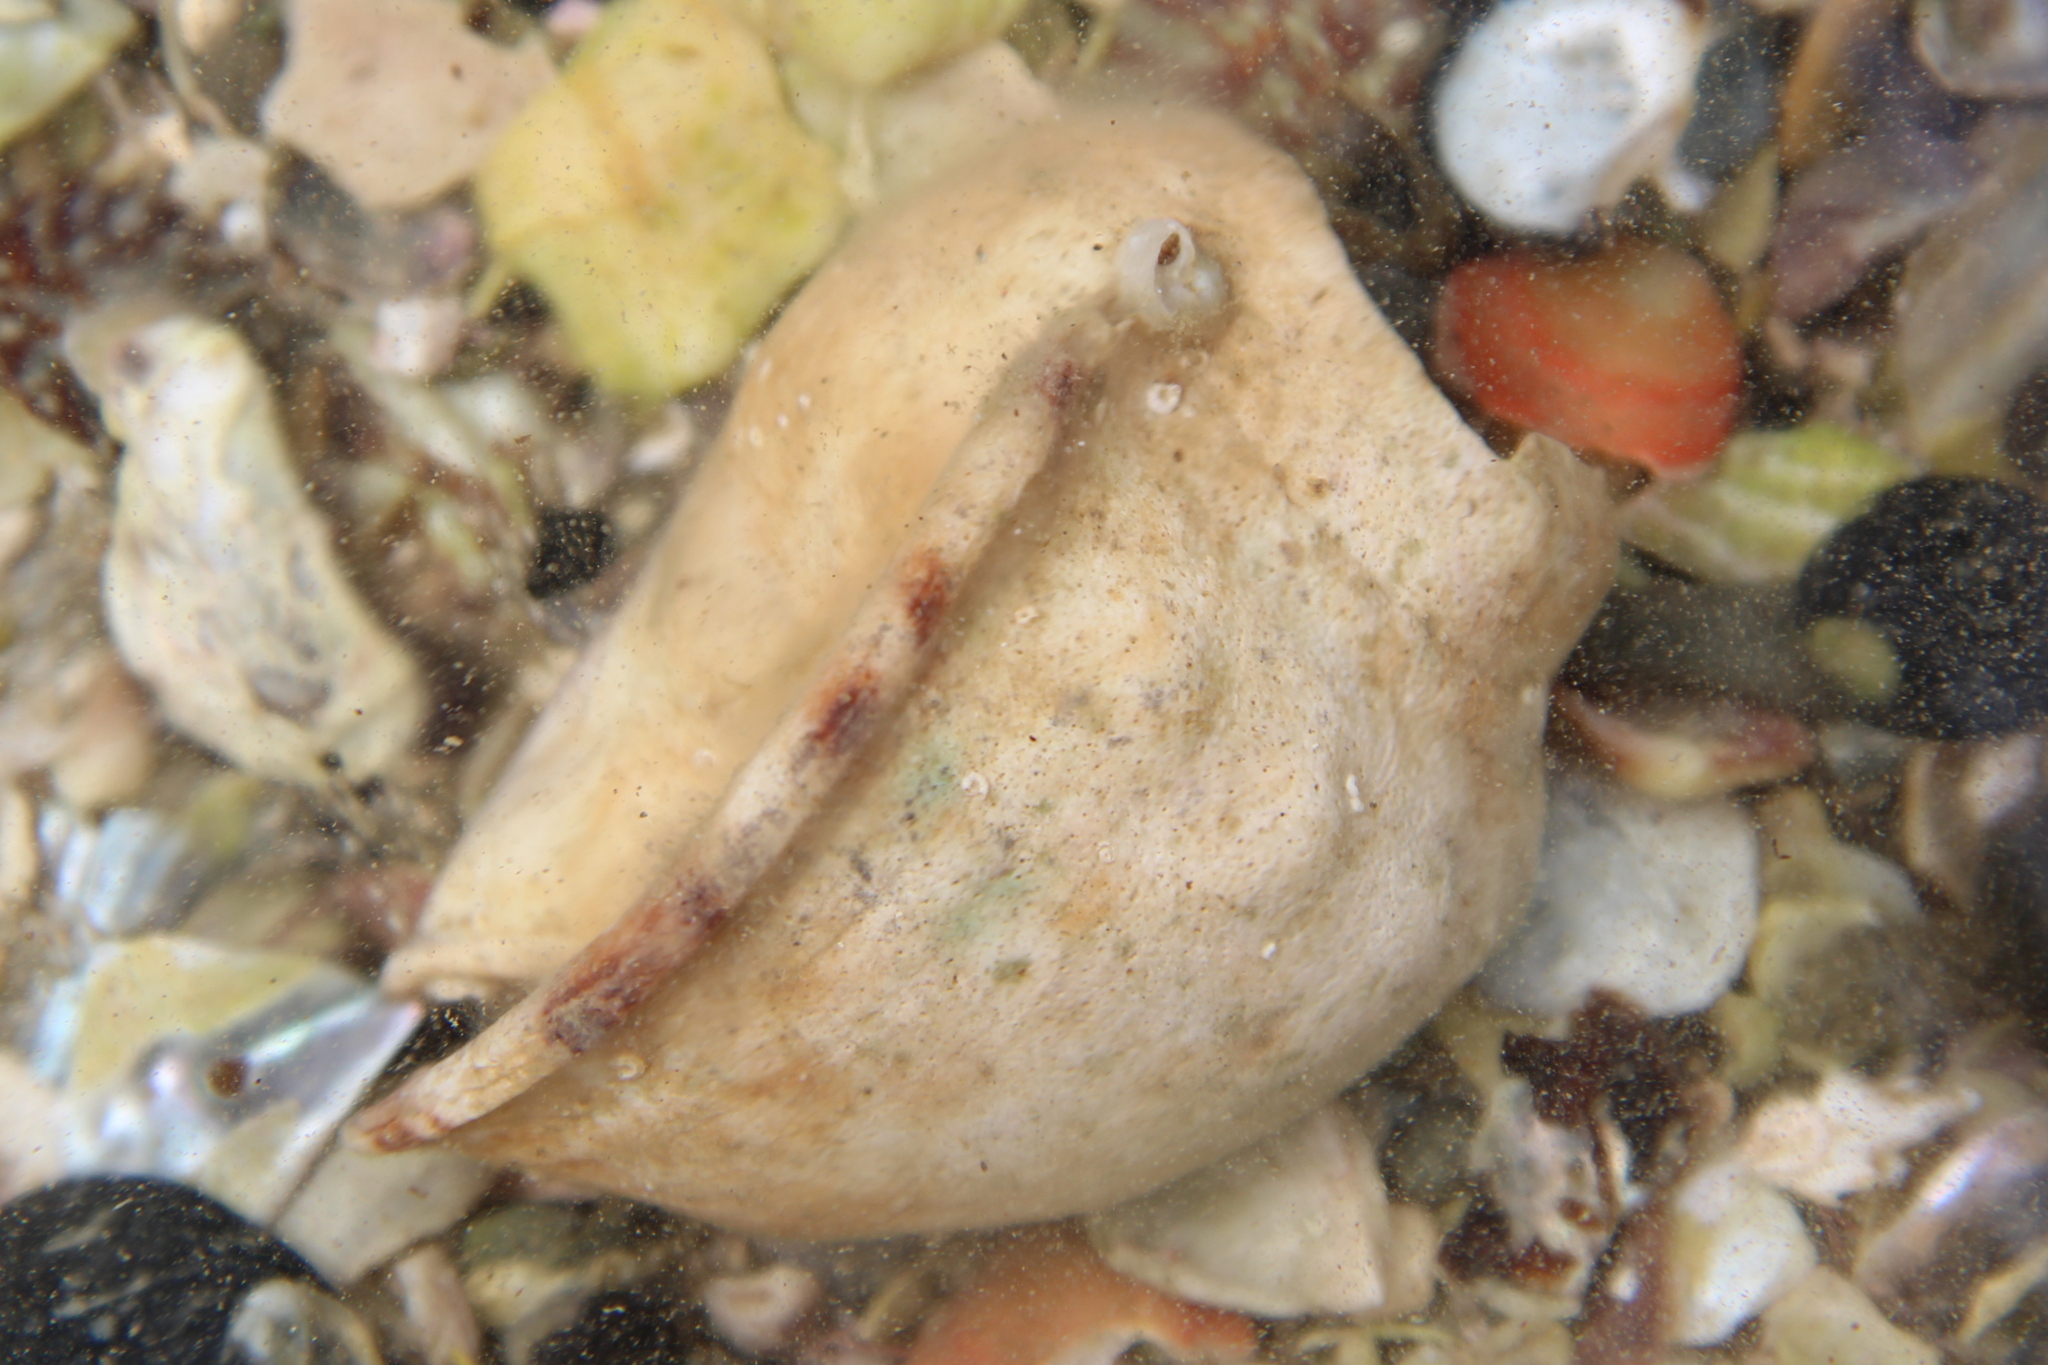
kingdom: Animalia
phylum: Mollusca
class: Gastropoda
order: Littorinimorpha
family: Cassidae
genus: Semicassis
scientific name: Semicassis pyrum
